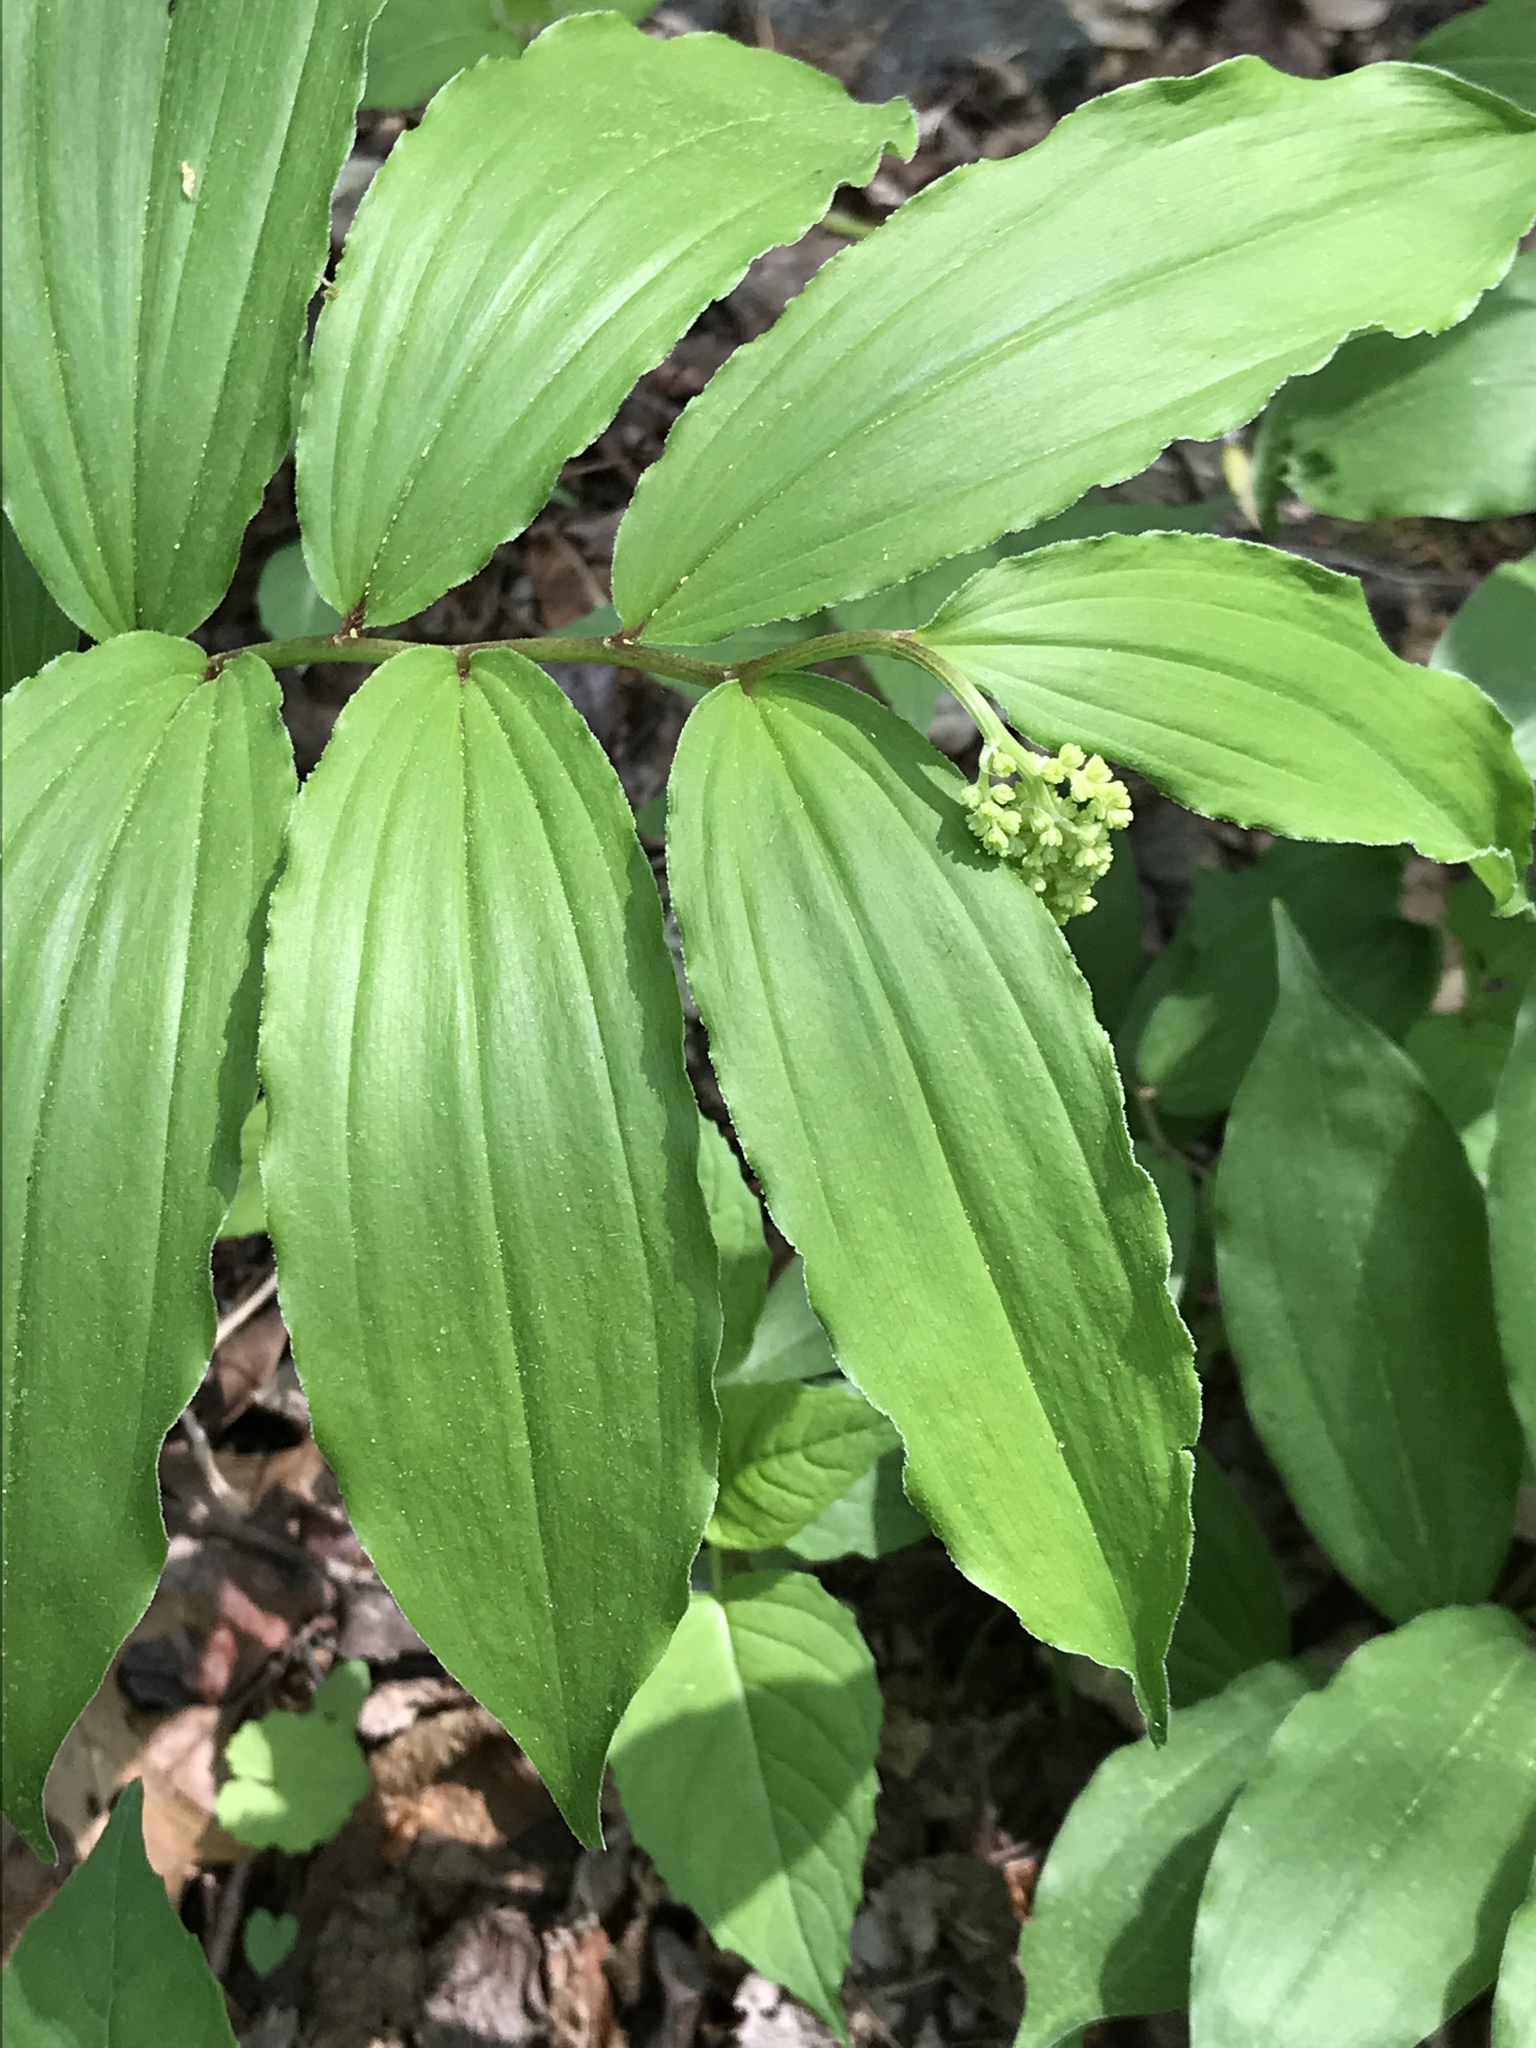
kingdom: Plantae
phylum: Tracheophyta
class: Liliopsida
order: Asparagales
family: Asparagaceae
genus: Maianthemum
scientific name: Maianthemum racemosum
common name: False spikenard
